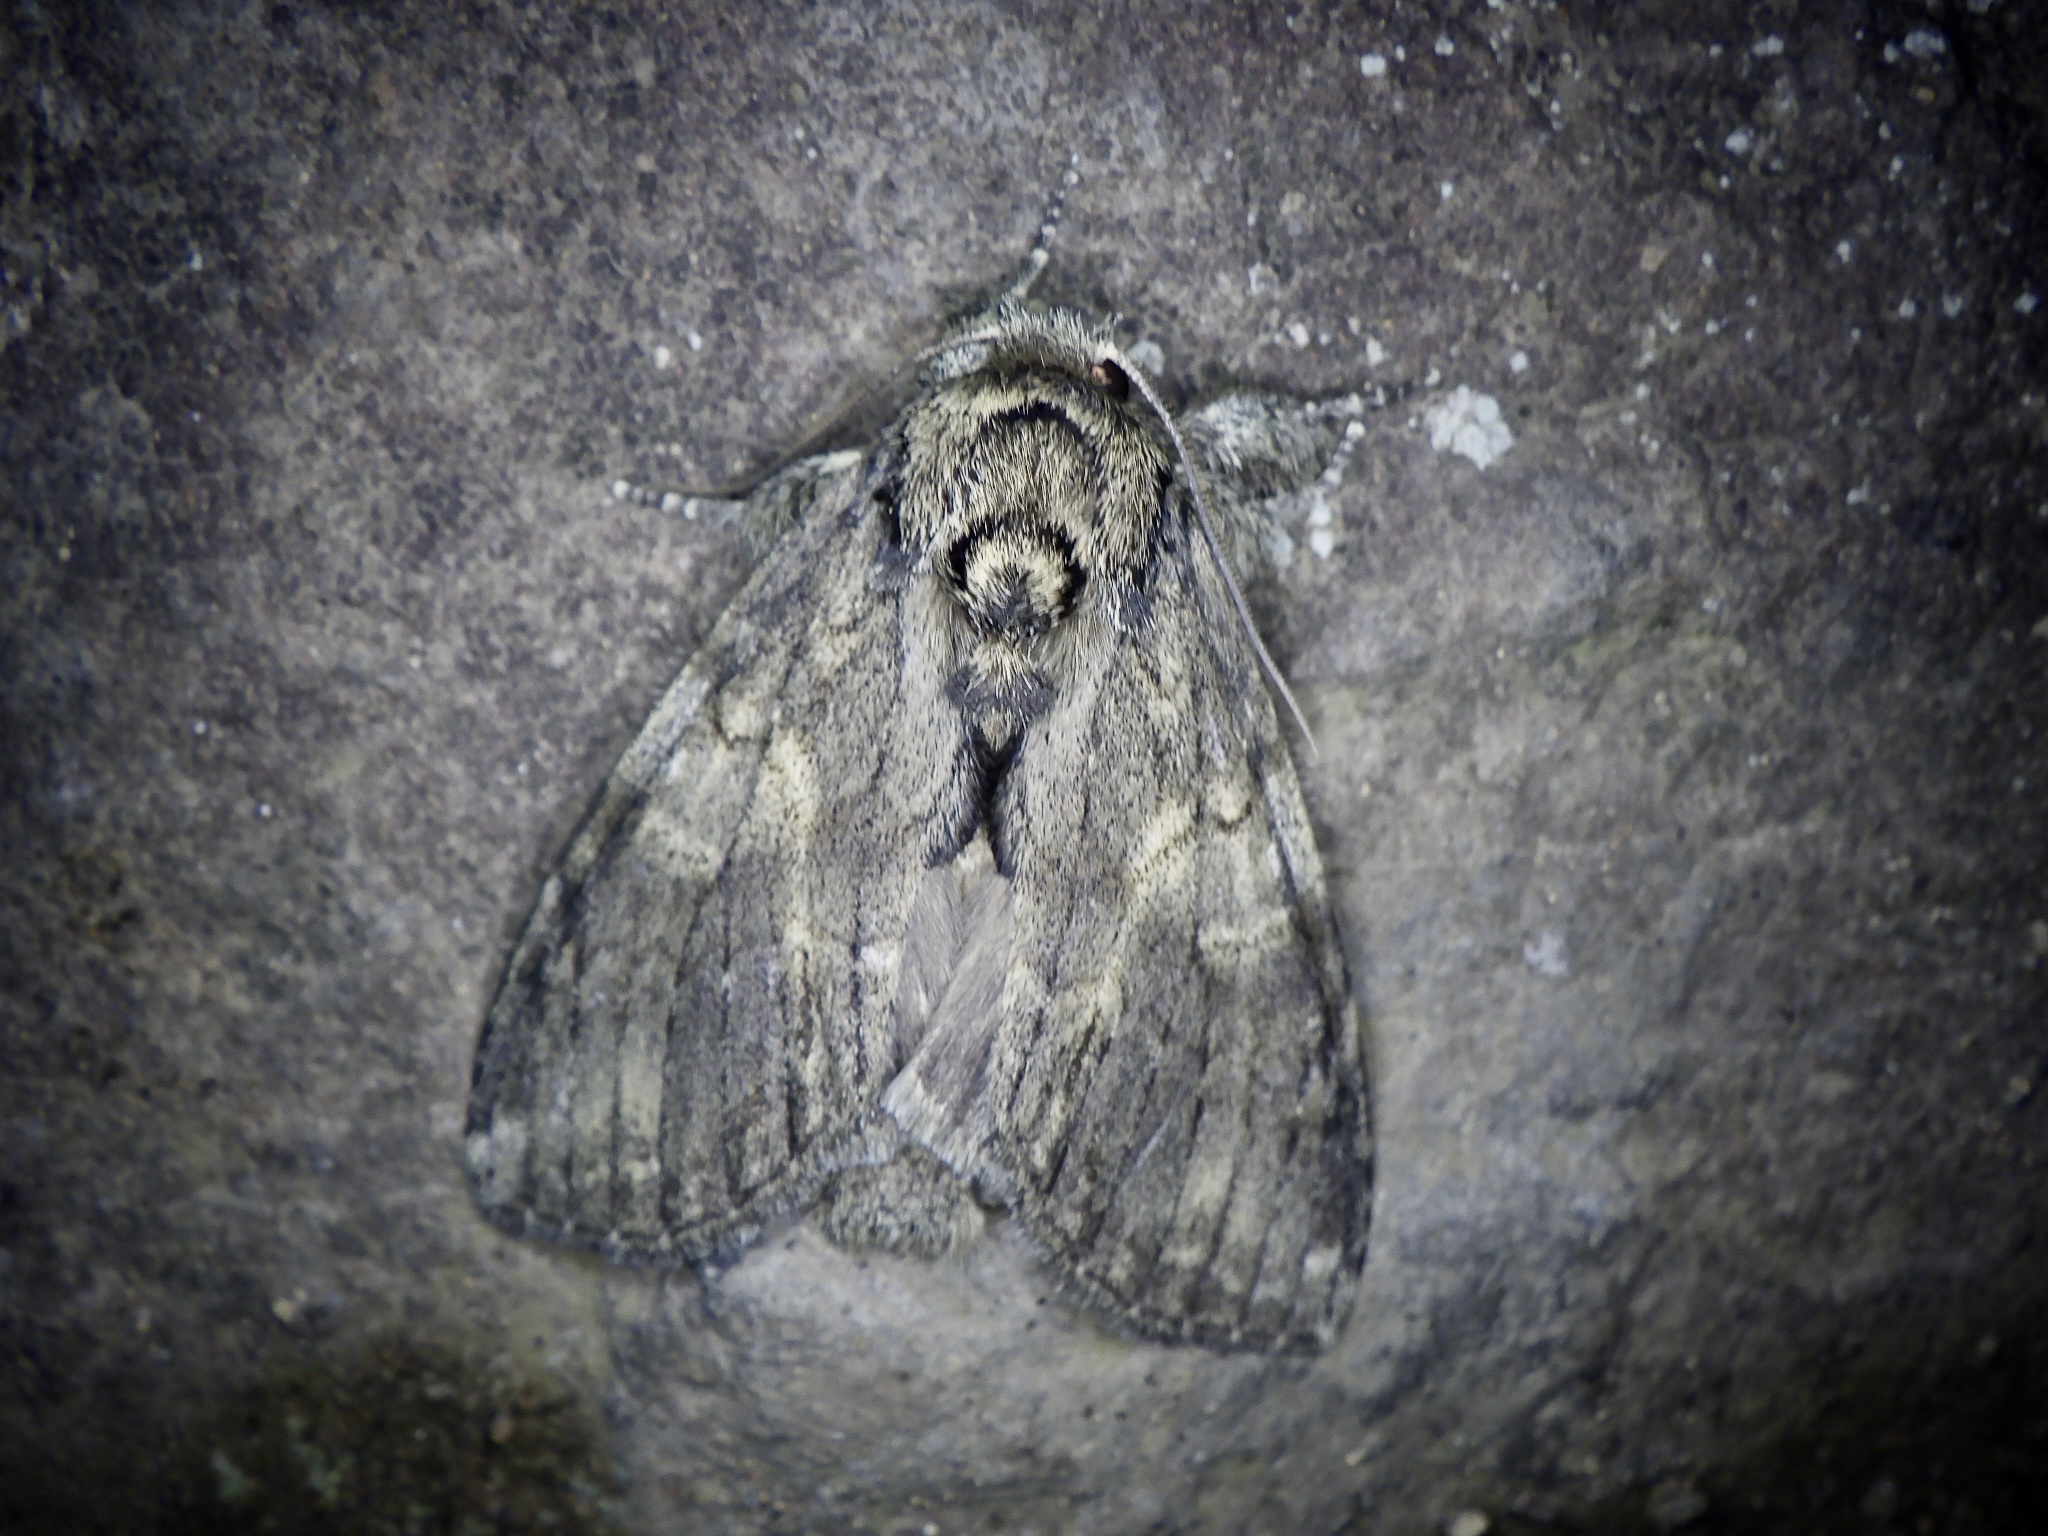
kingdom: Animalia
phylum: Arthropoda
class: Insecta
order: Lepidoptera
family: Notodontidae
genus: Peridea
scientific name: Peridea gigantea
